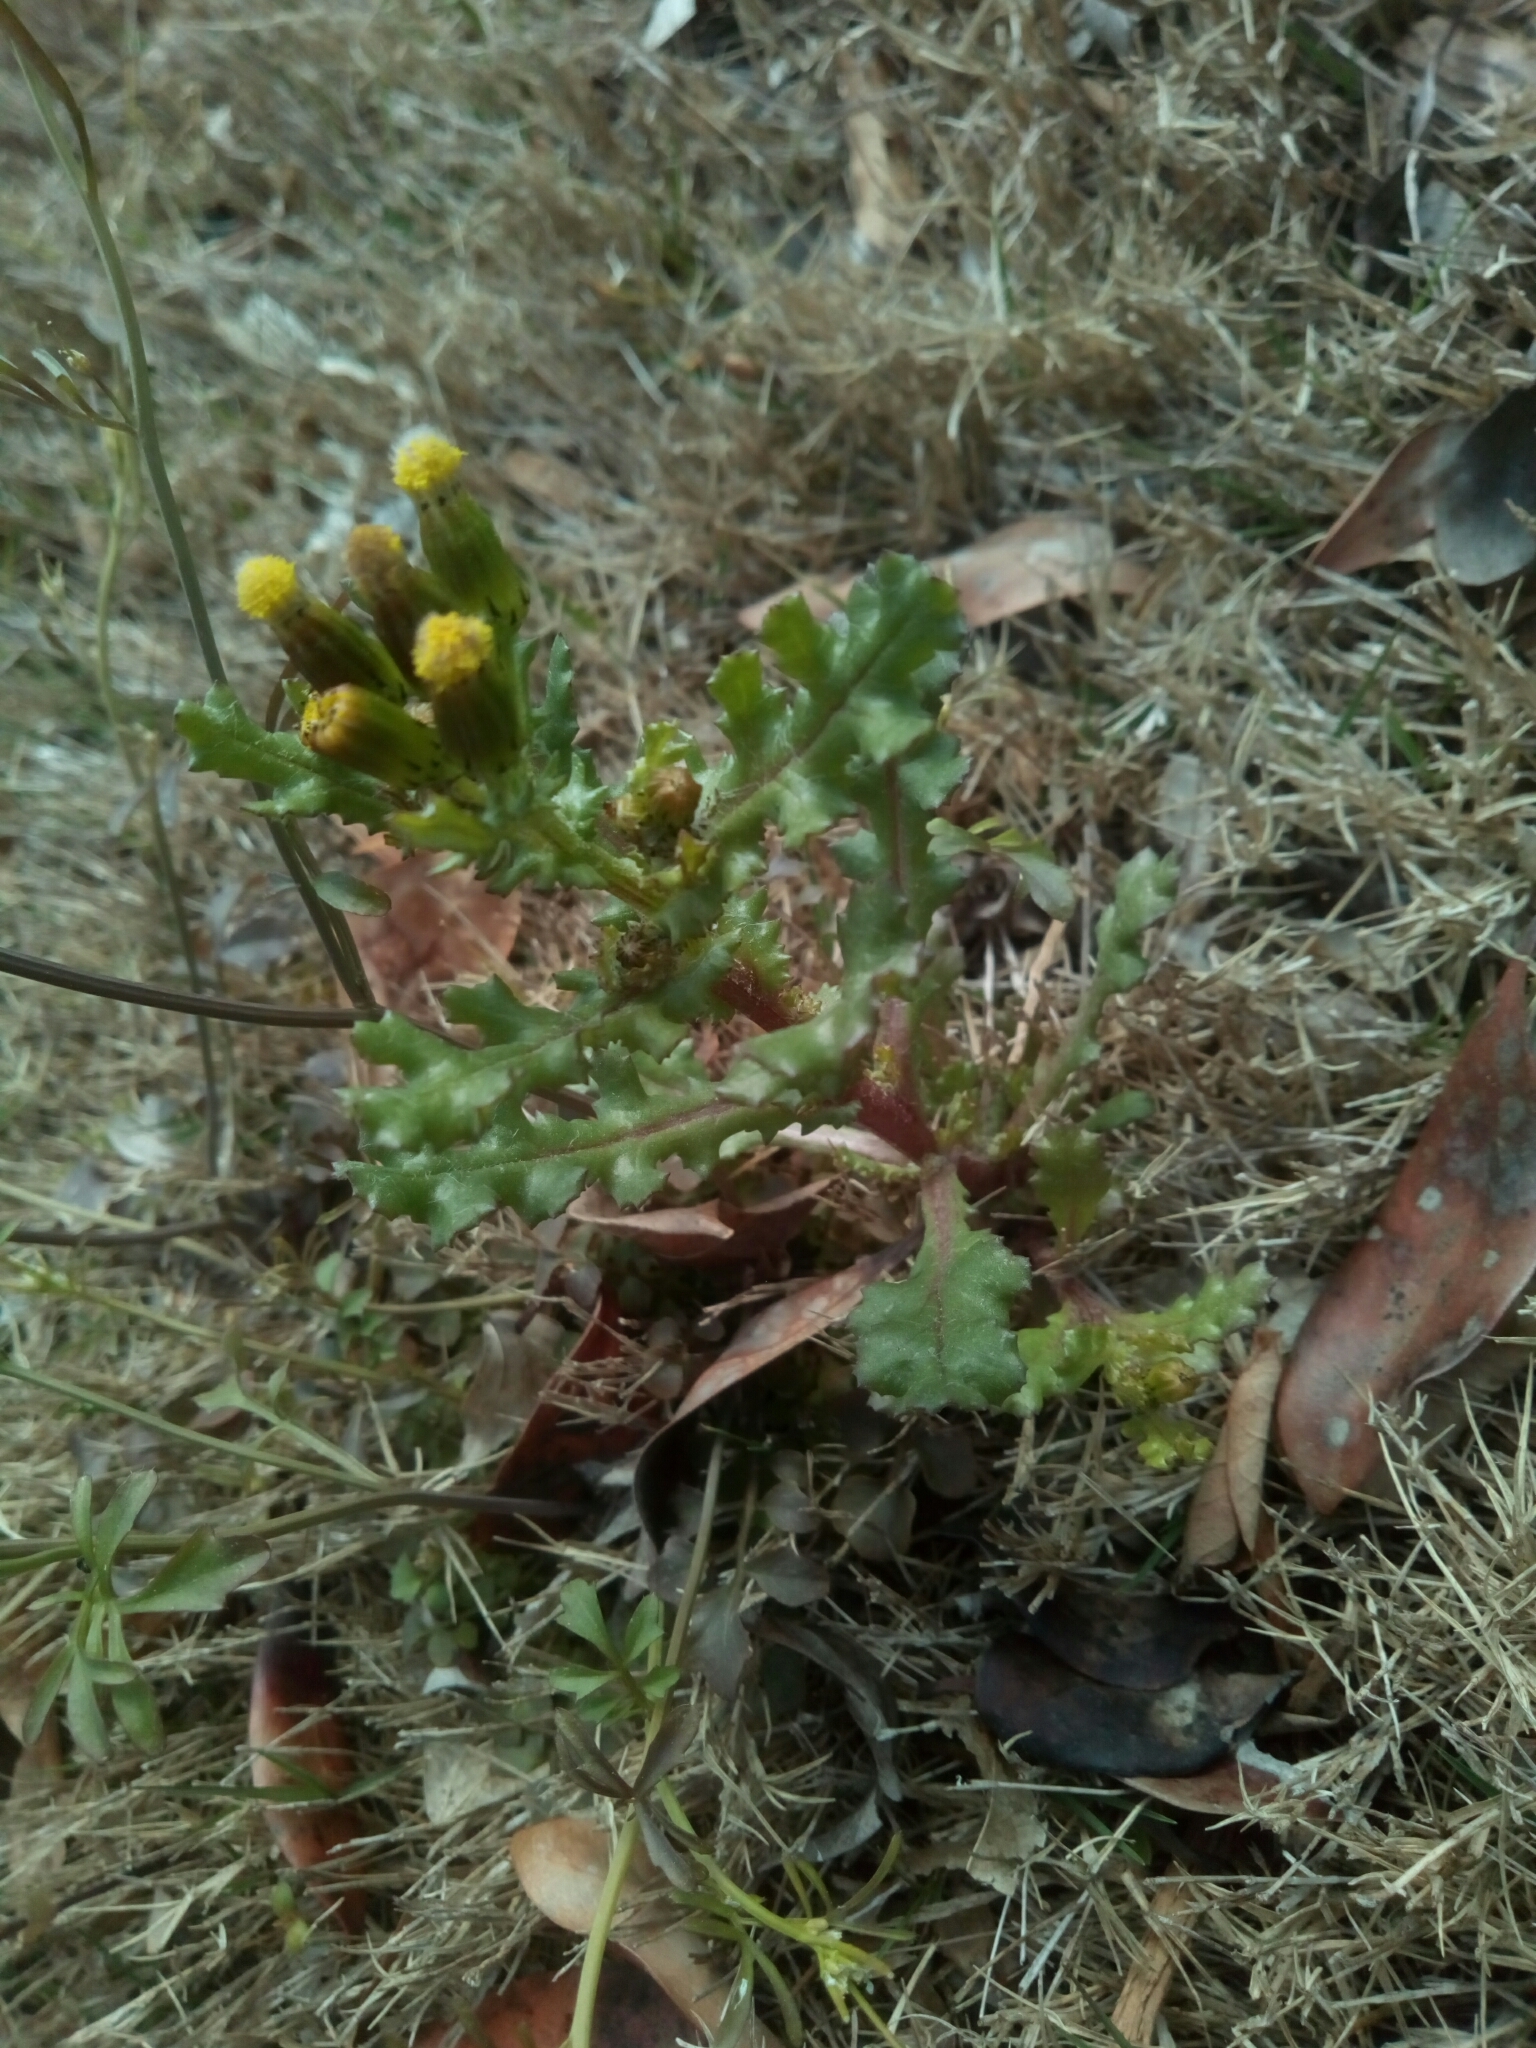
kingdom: Plantae
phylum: Tracheophyta
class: Magnoliopsida
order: Asterales
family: Asteraceae
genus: Senecio
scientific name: Senecio vulgaris
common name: Old-man-in-the-spring
